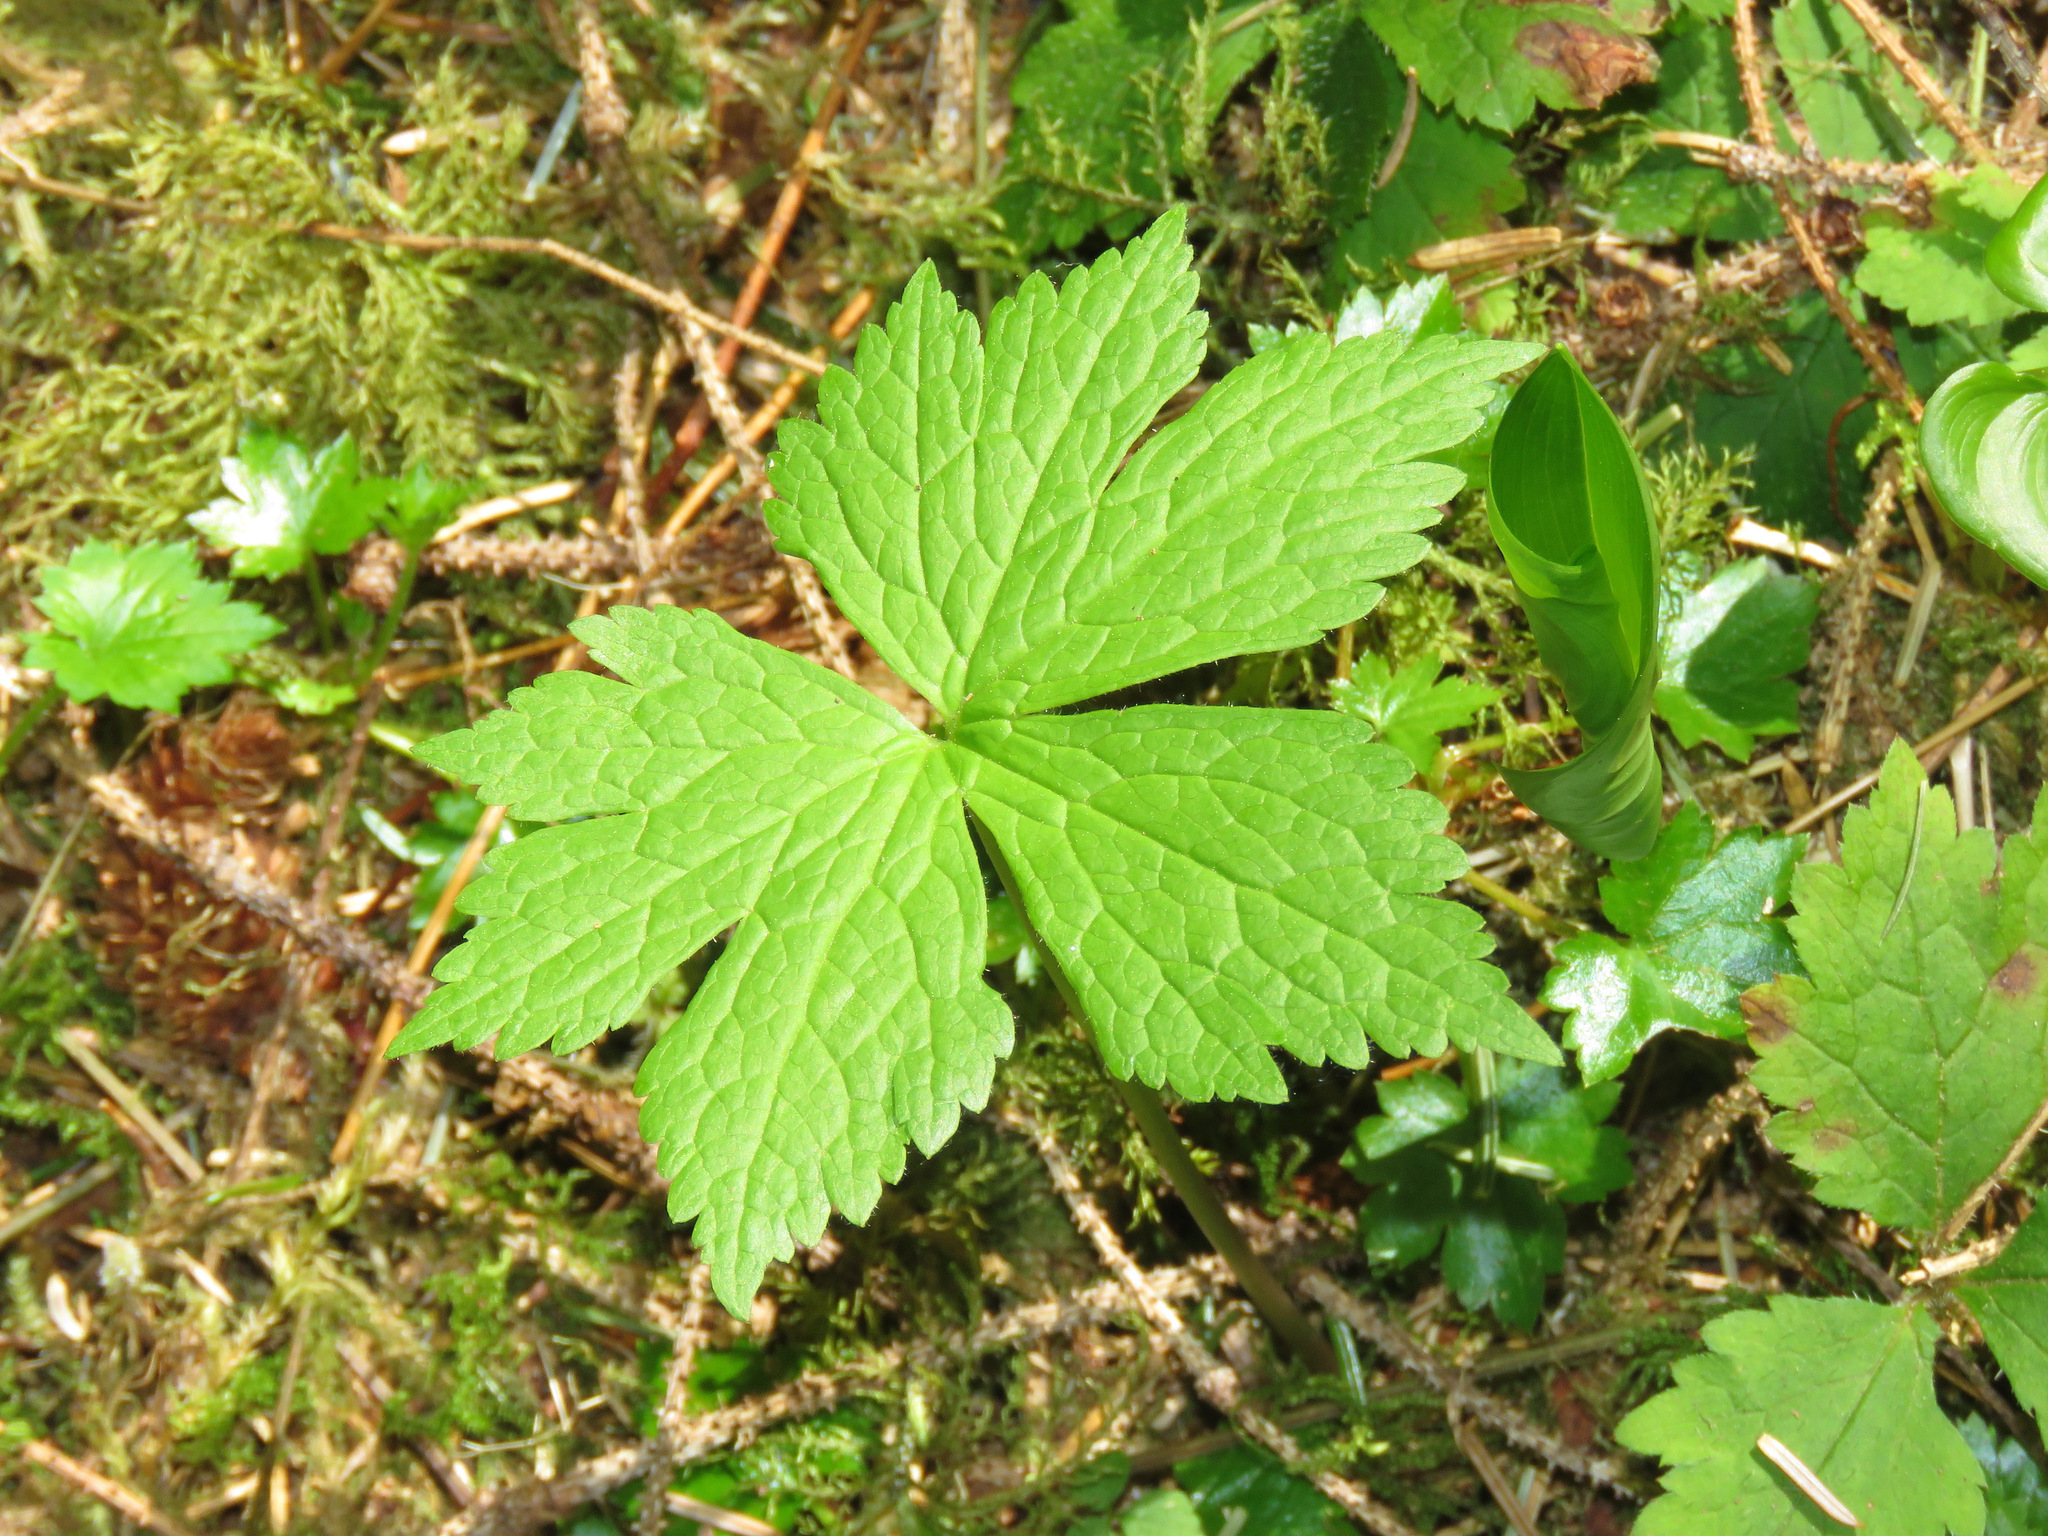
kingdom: Plantae
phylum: Tracheophyta
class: Magnoliopsida
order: Ranunculales
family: Ranunculaceae
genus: Trautvetteria
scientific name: Trautvetteria carolinensis
